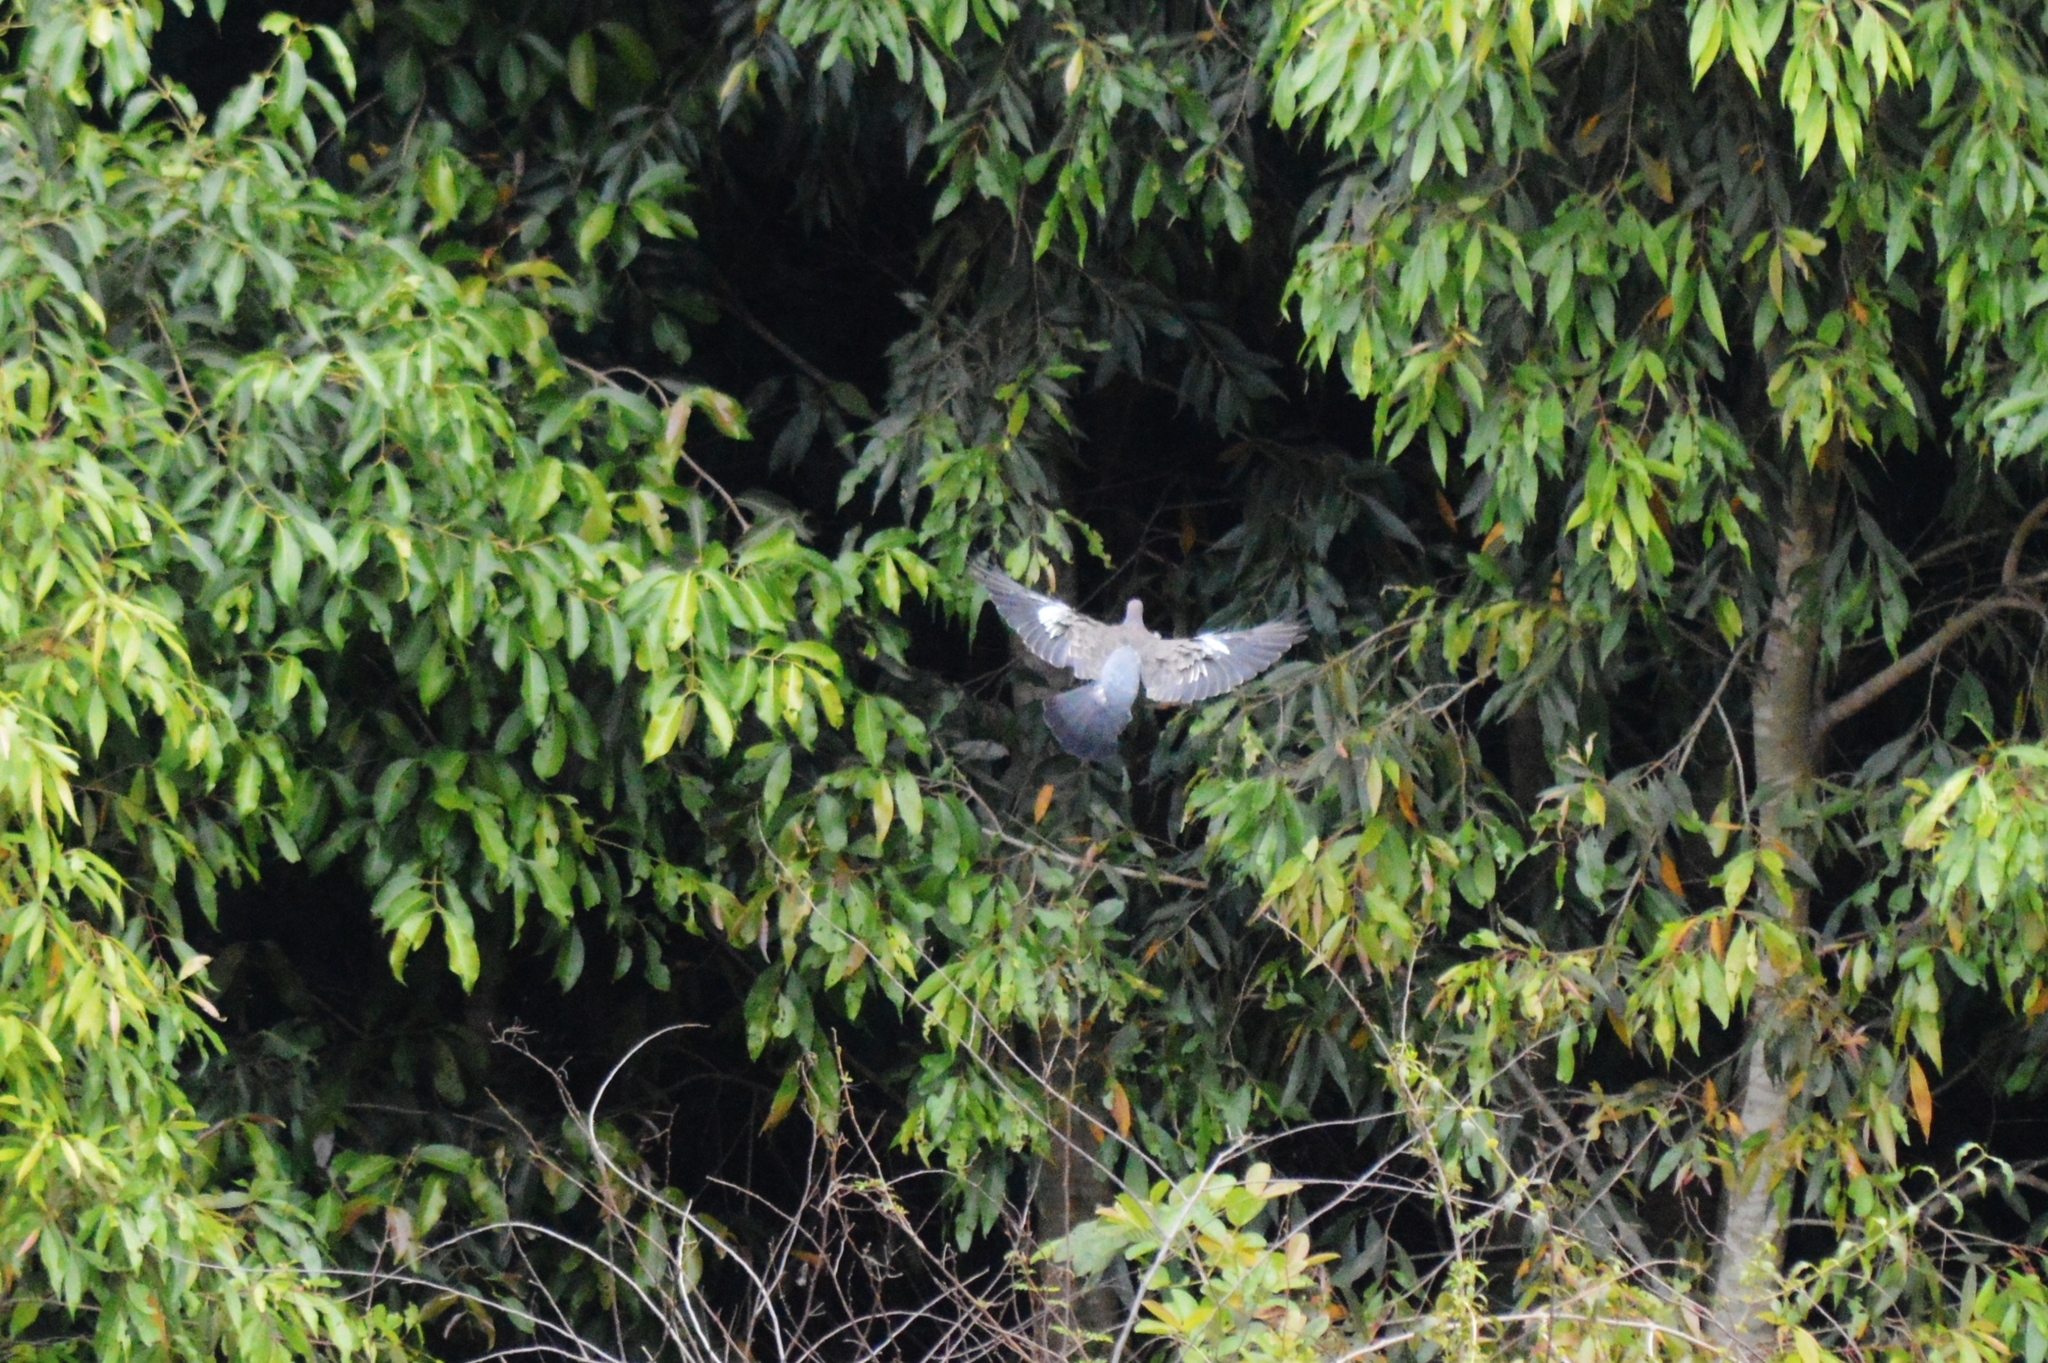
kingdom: Animalia
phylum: Chordata
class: Aves
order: Columbiformes
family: Columbidae
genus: Patagioenas
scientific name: Patagioenas picazuro
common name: Picazuro pigeon
